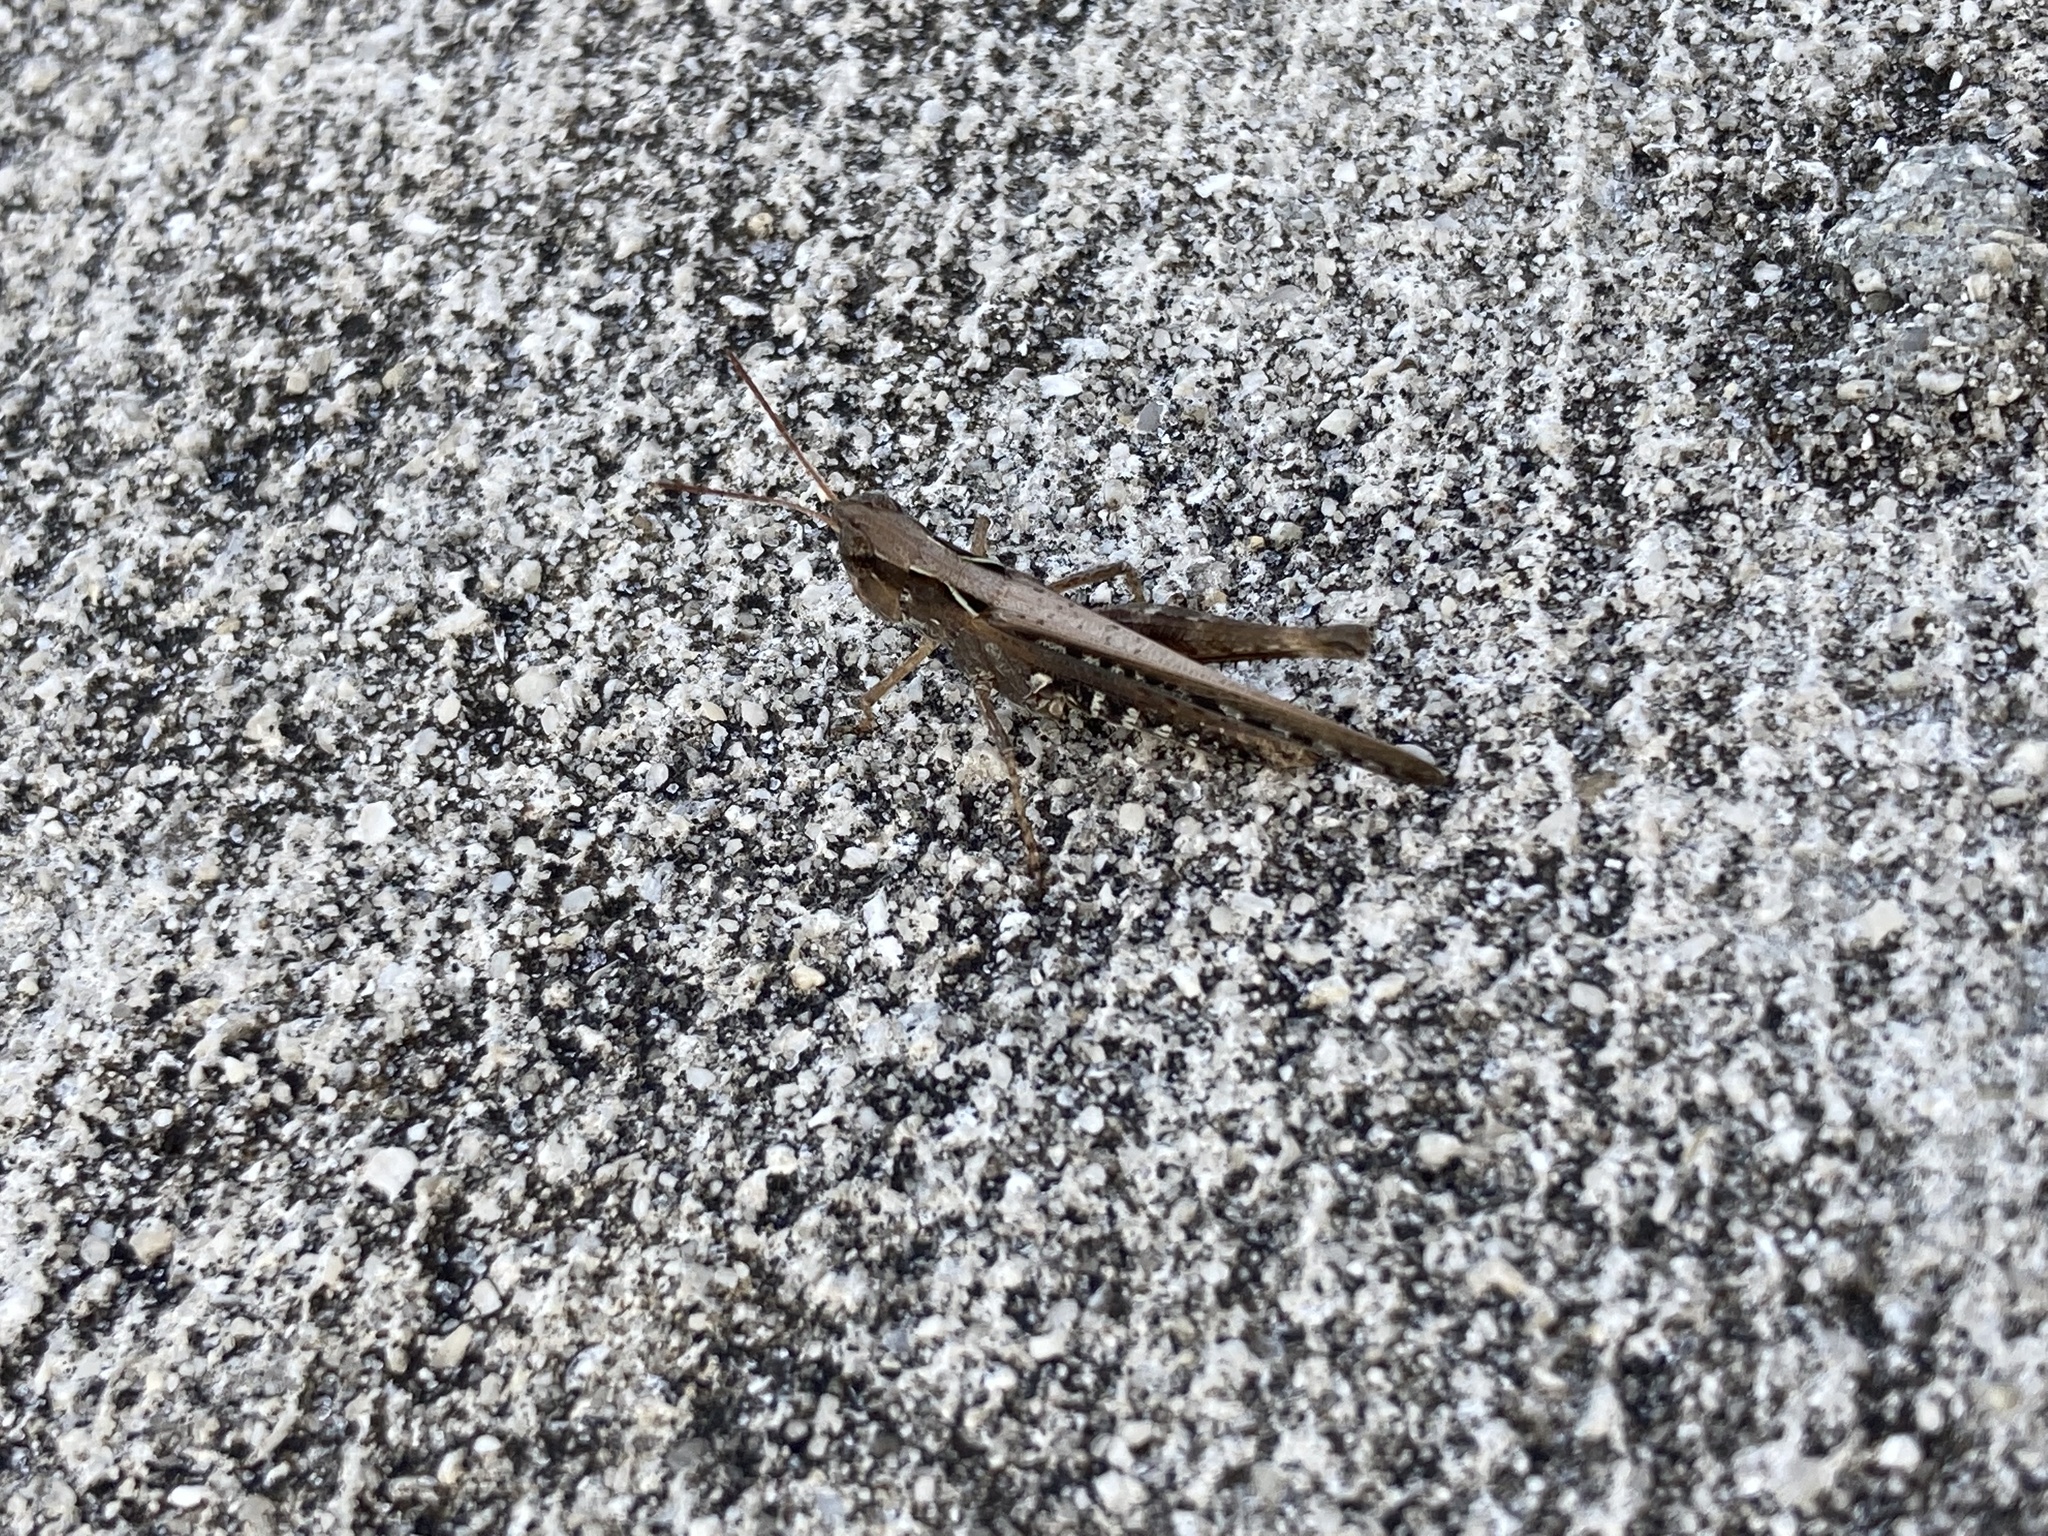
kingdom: Animalia
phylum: Arthropoda
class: Insecta
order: Orthoptera
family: Acrididae
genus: Orphulella
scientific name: Orphulella pelidna
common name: Spotted-wing grasshopper
